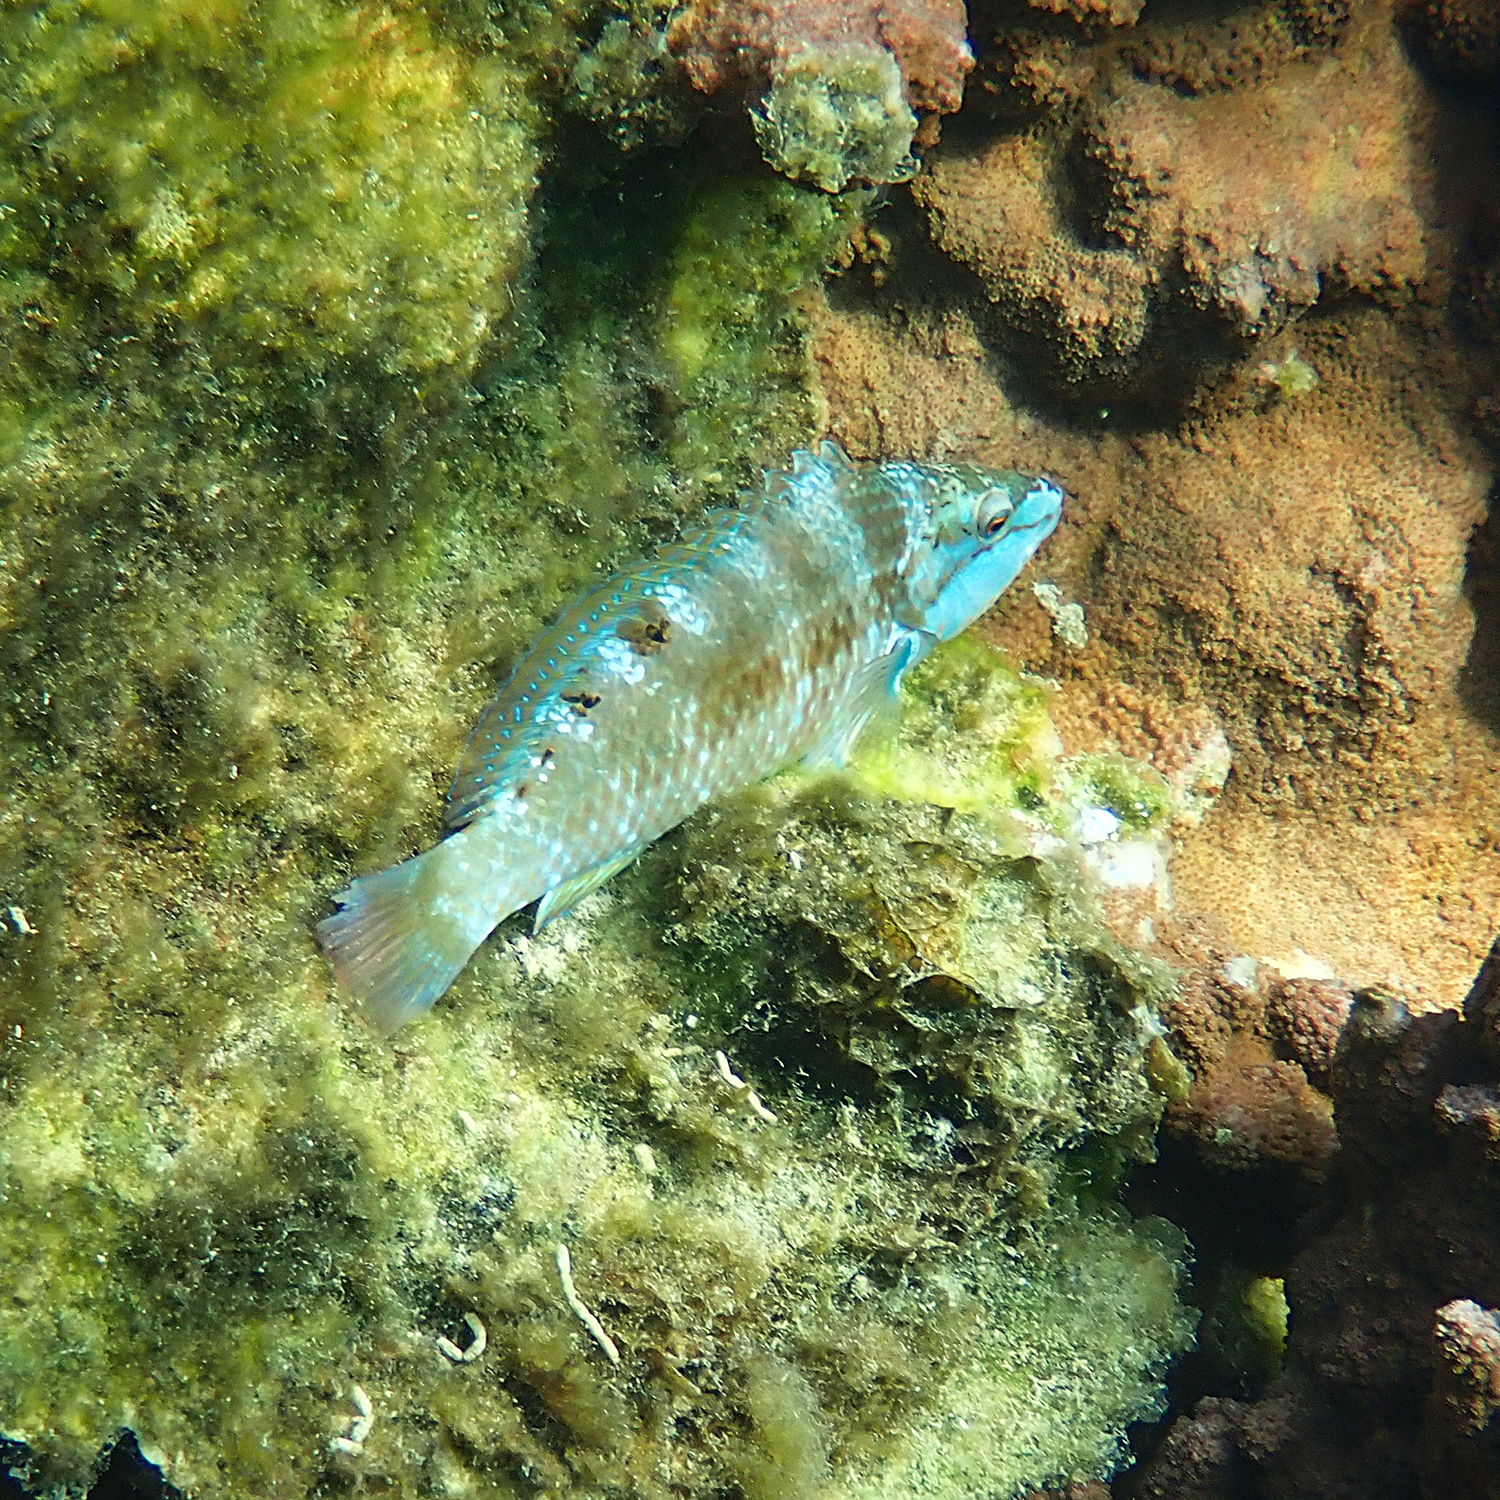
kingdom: Animalia
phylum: Chordata
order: Perciformes
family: Labridae
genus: Pseudolabrus
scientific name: Pseudolabrus luculentus
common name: Luculentus wrasse
